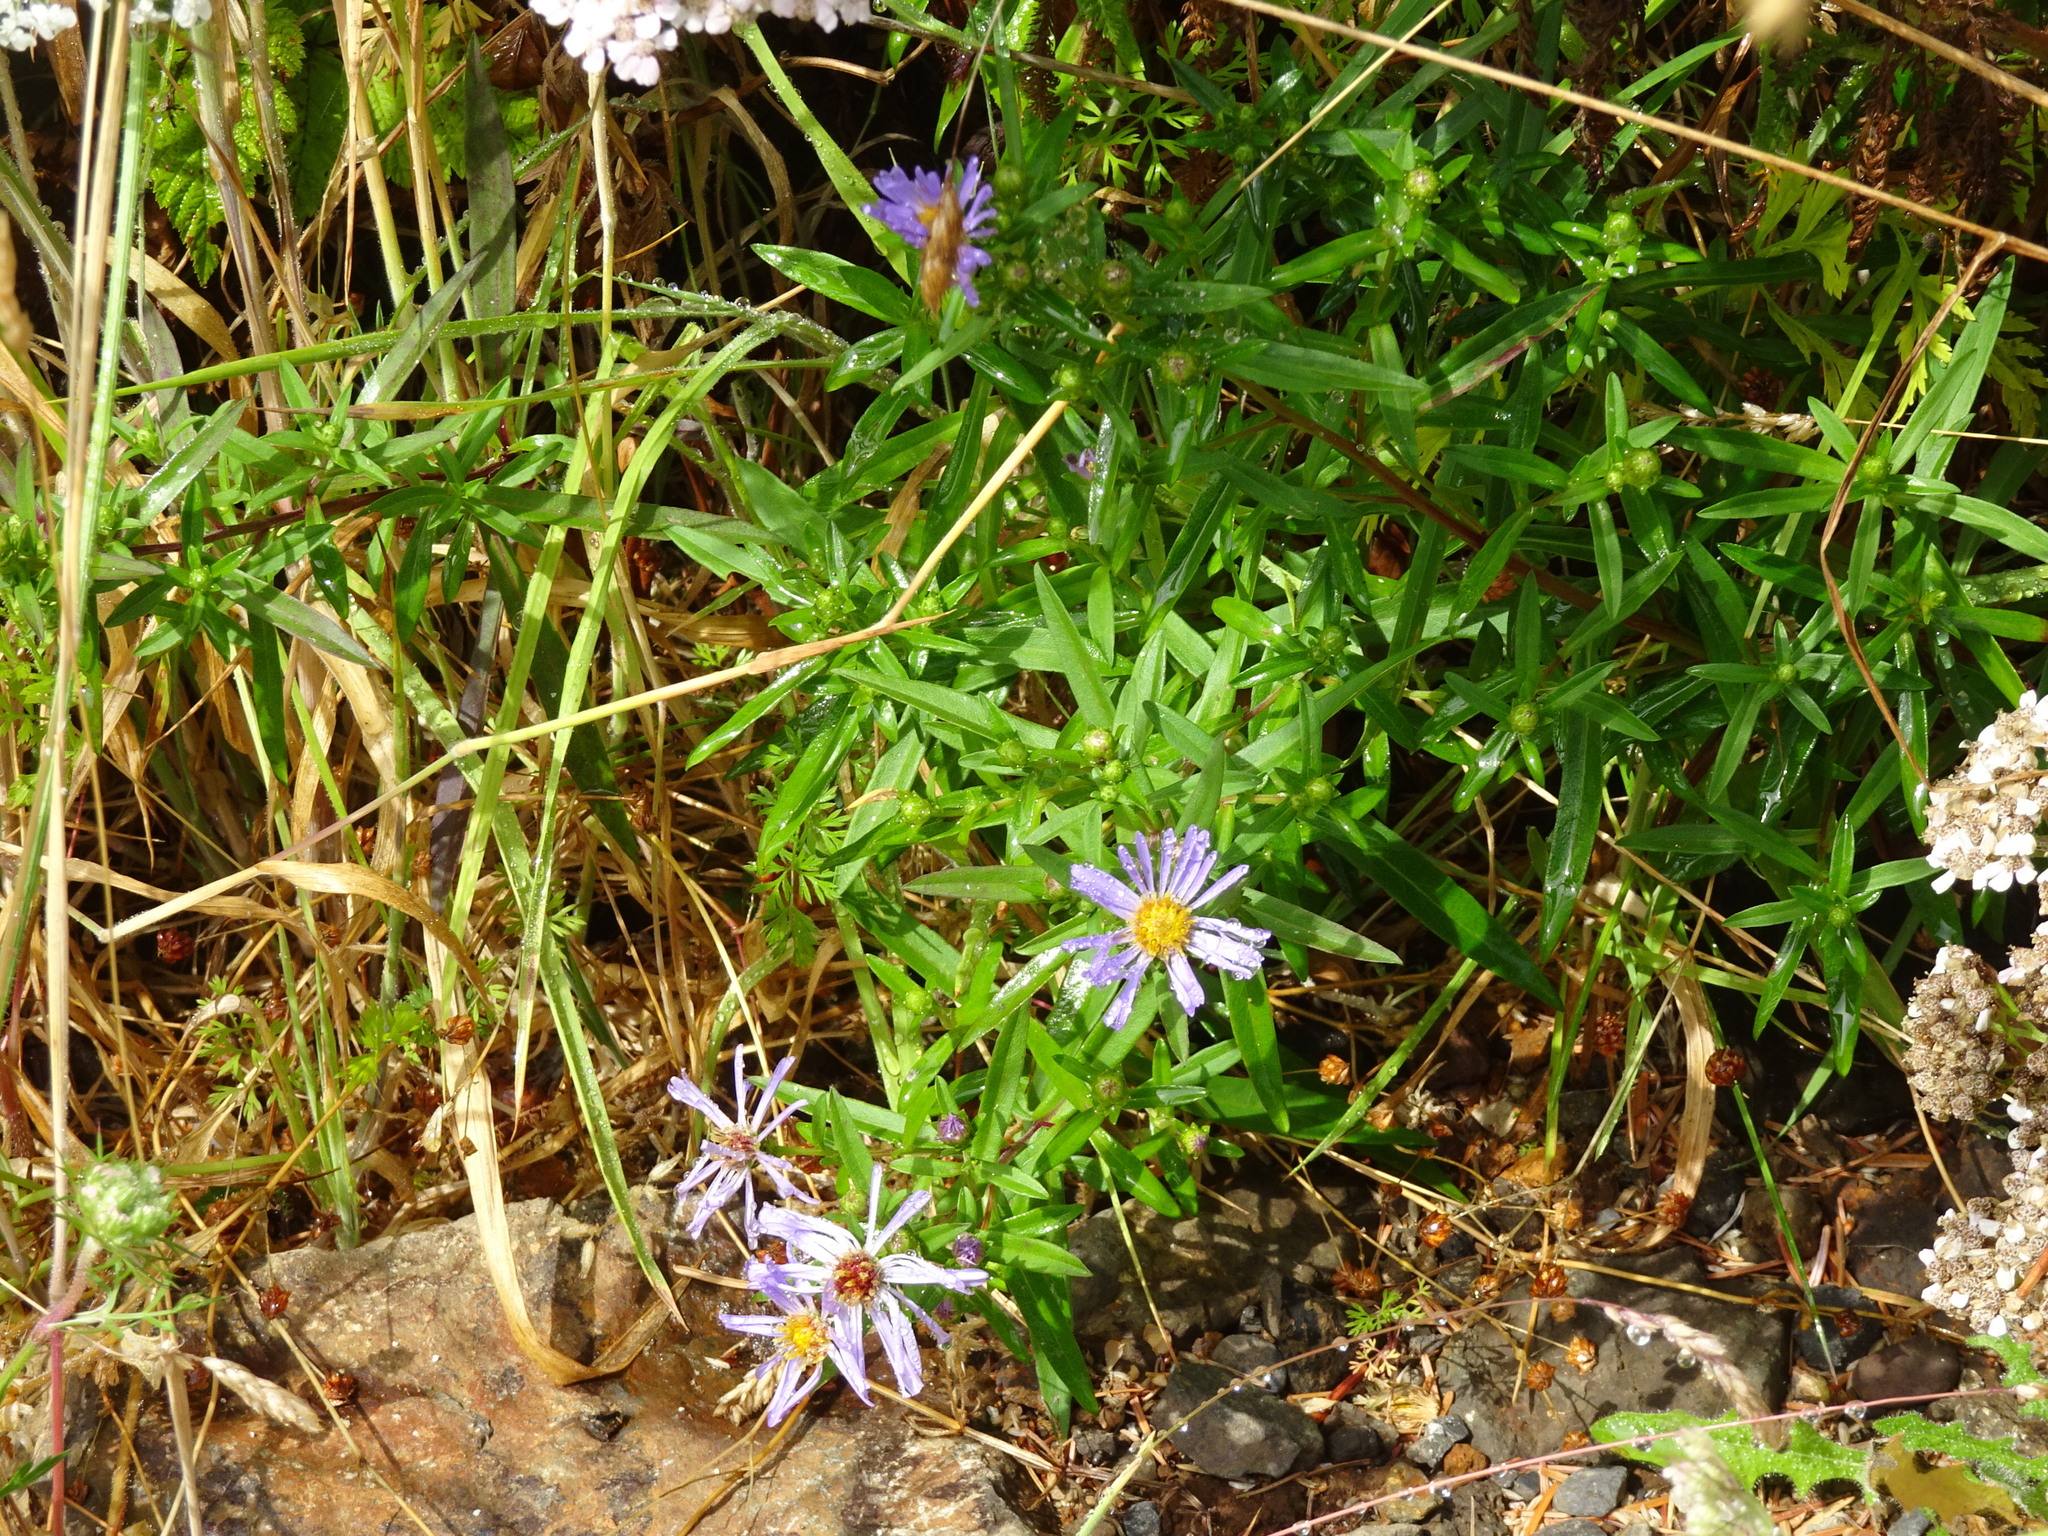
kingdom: Plantae
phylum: Tracheophyta
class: Magnoliopsida
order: Asterales
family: Asteraceae
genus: Symphyotrichum
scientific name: Symphyotrichum chilense
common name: Pacific aster
